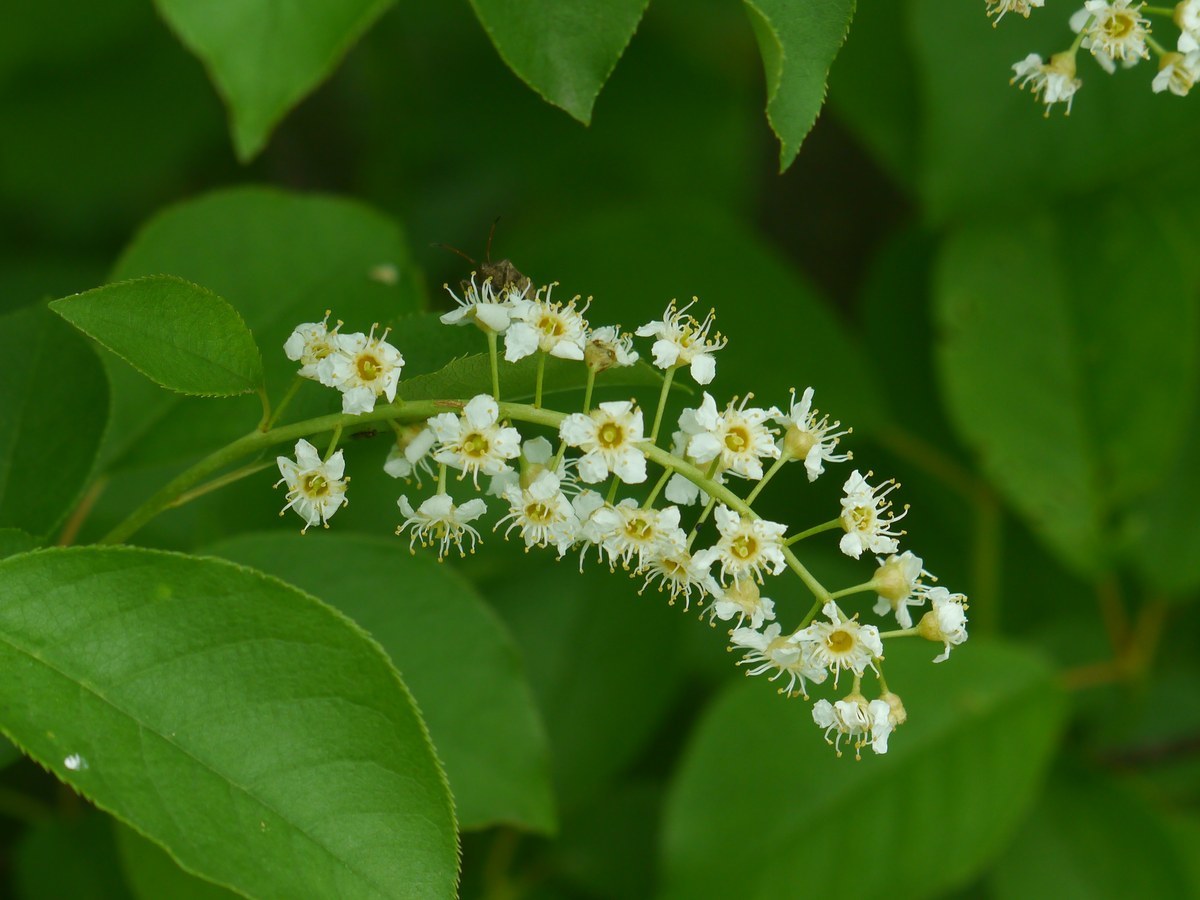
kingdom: Plantae
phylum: Tracheophyta
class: Magnoliopsida
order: Rosales
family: Rosaceae
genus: Prunus
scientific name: Prunus serotina
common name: Black cherry
